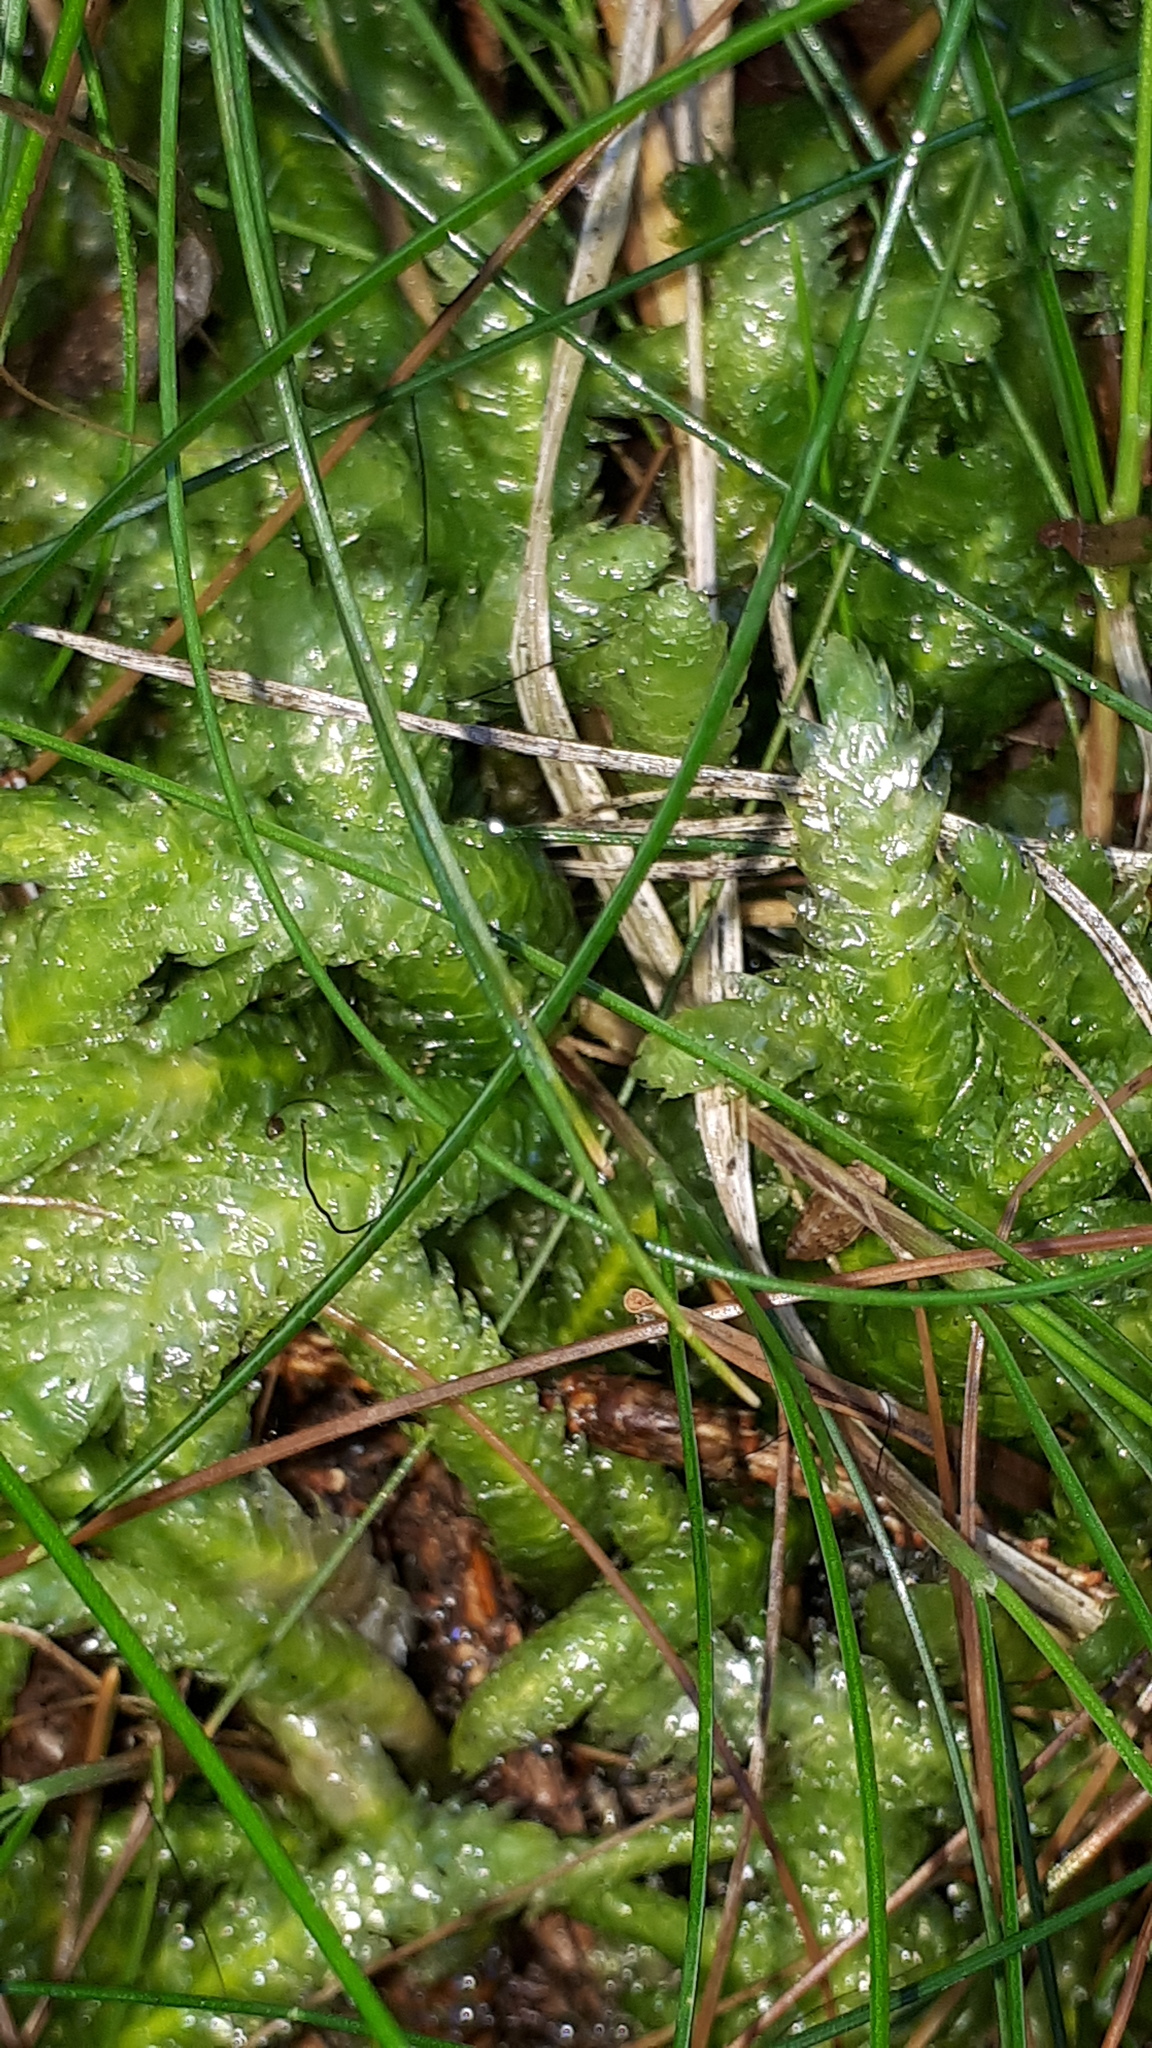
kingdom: Plantae
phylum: Bryophyta
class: Bryopsida
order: Hypnales
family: Plagiotheciaceae
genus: Plagiothecium
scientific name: Plagiothecium undulatum
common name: Waved silk-moss
